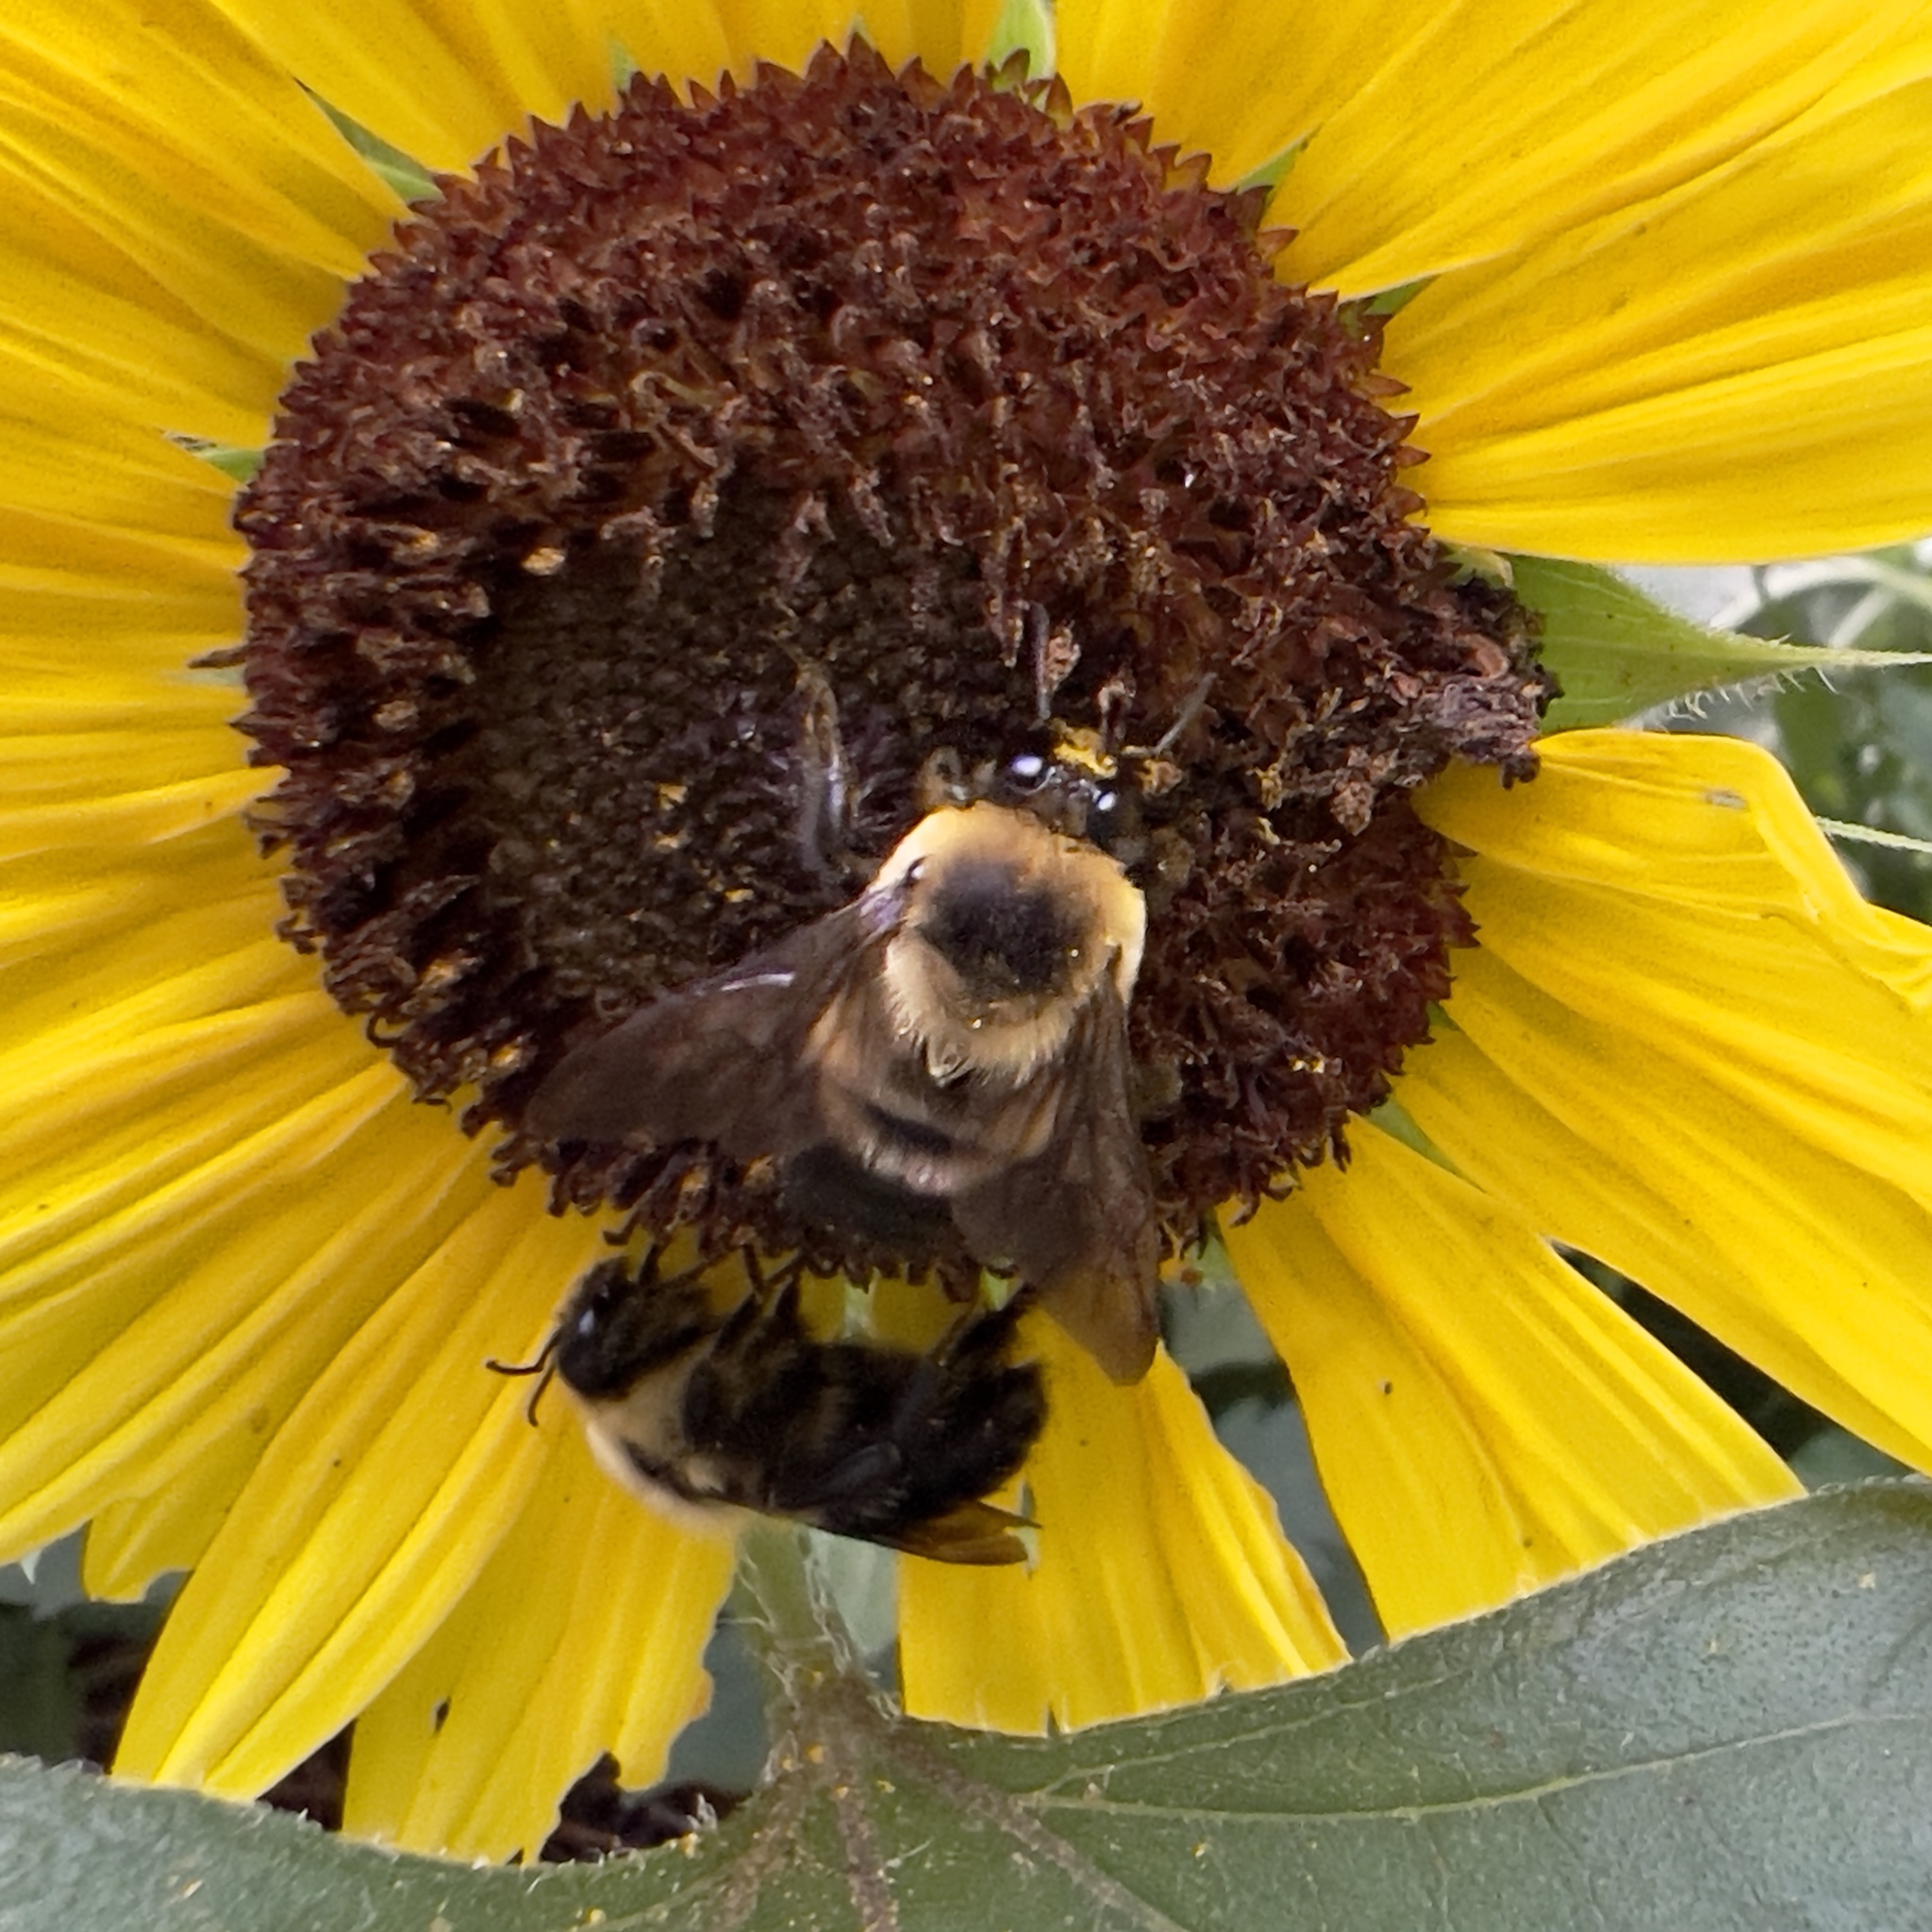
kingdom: Animalia
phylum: Arthropoda
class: Insecta
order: Hymenoptera
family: Apidae
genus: Bombus
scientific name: Bombus griseocollis
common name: Brown-belted bumble bee
